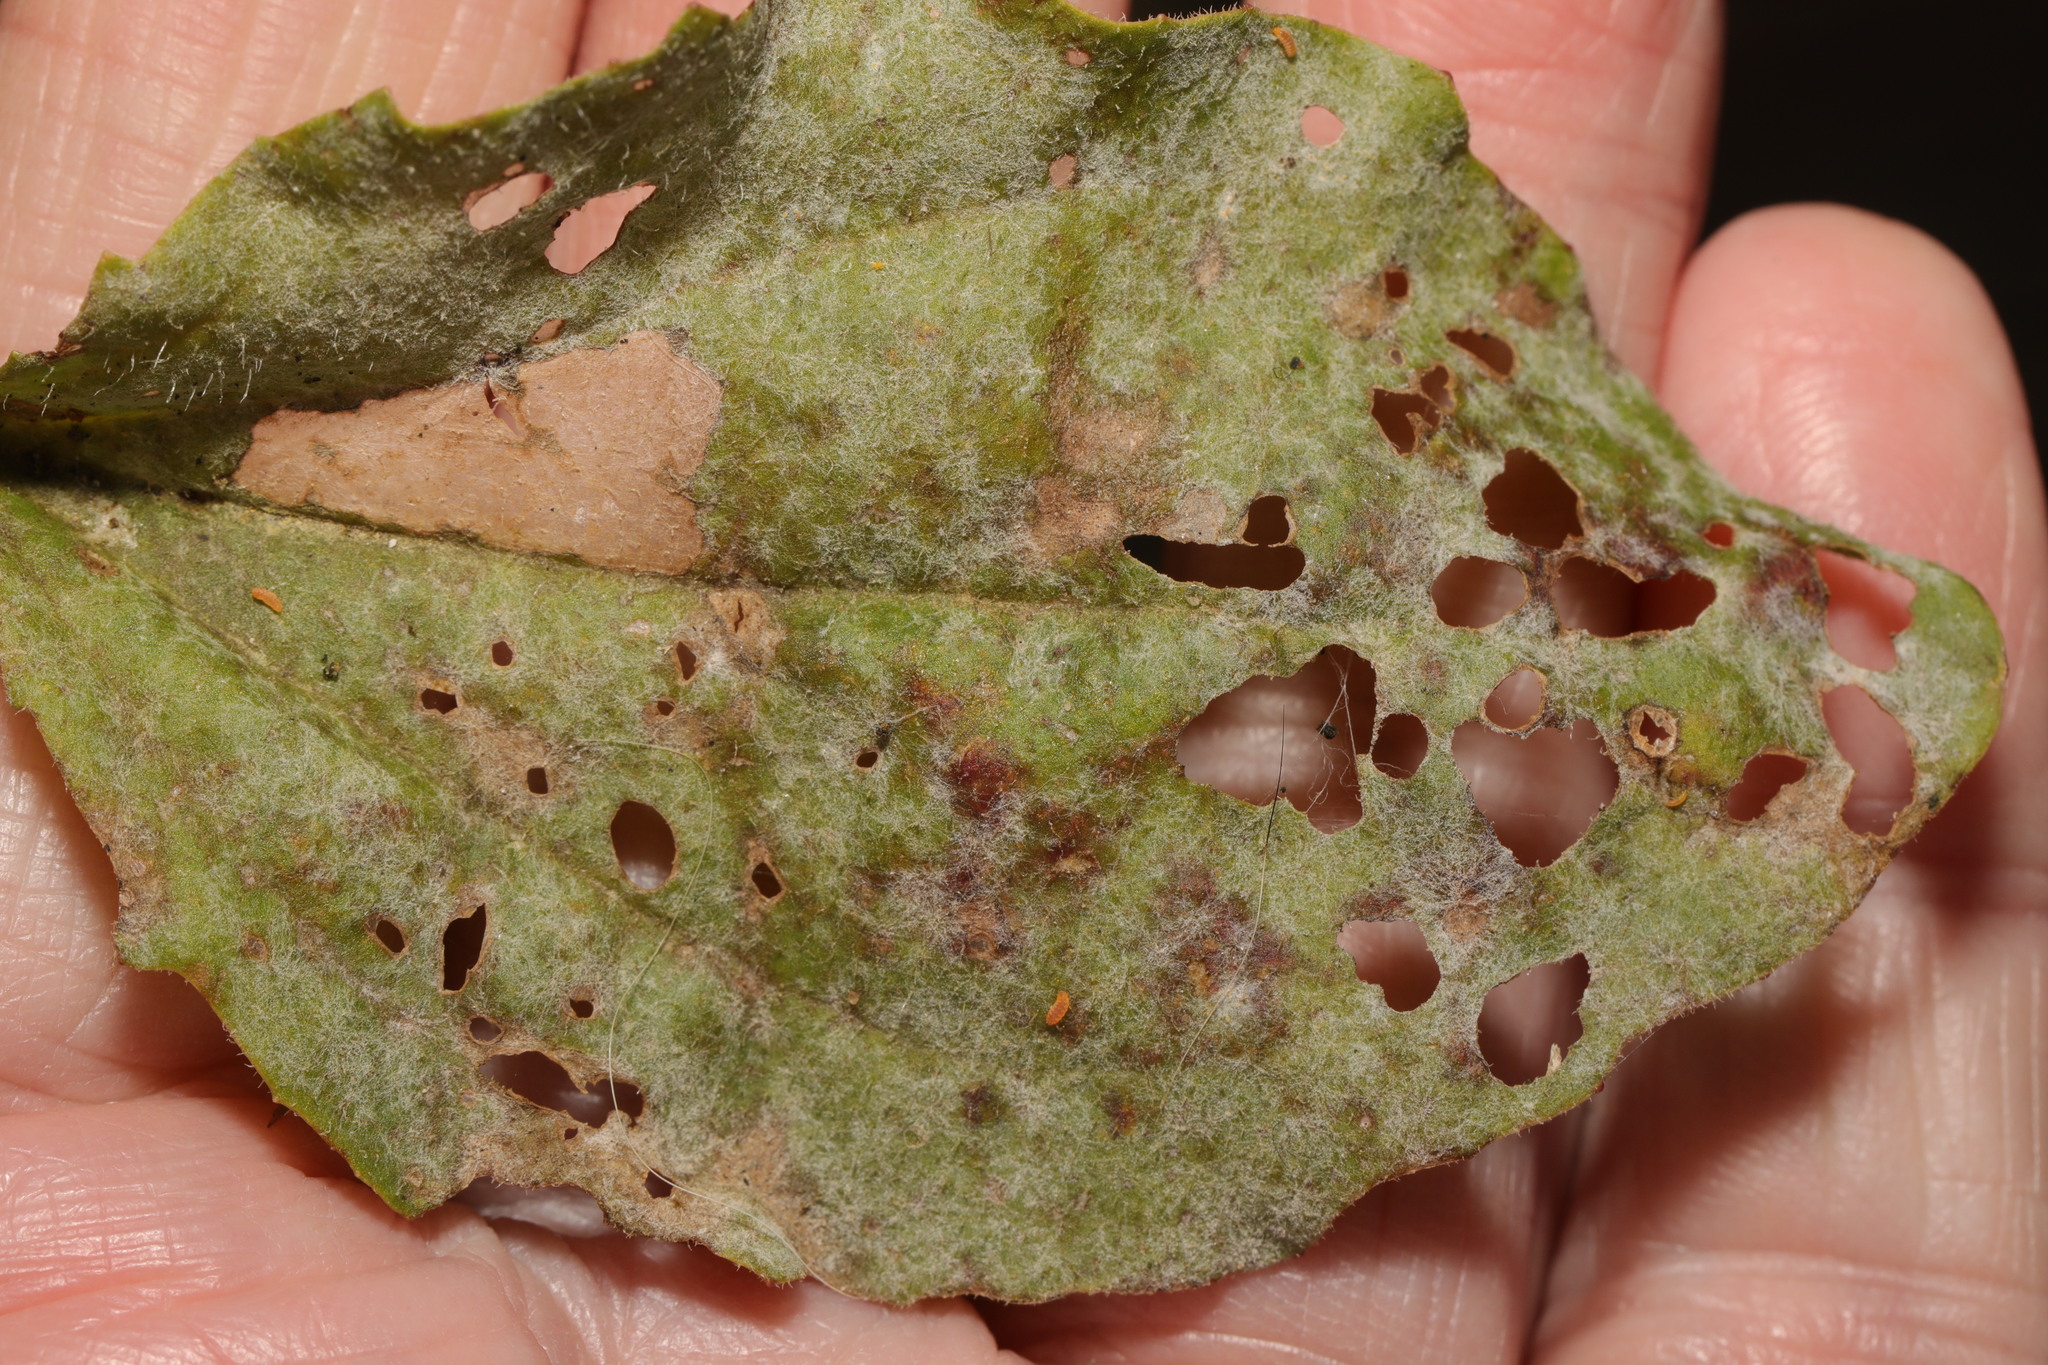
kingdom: Fungi
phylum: Ascomycota
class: Leotiomycetes
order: Helotiales
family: Erysiphaceae
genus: Golovinomyces
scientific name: Golovinomyces sordidus
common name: Plantain mildew
